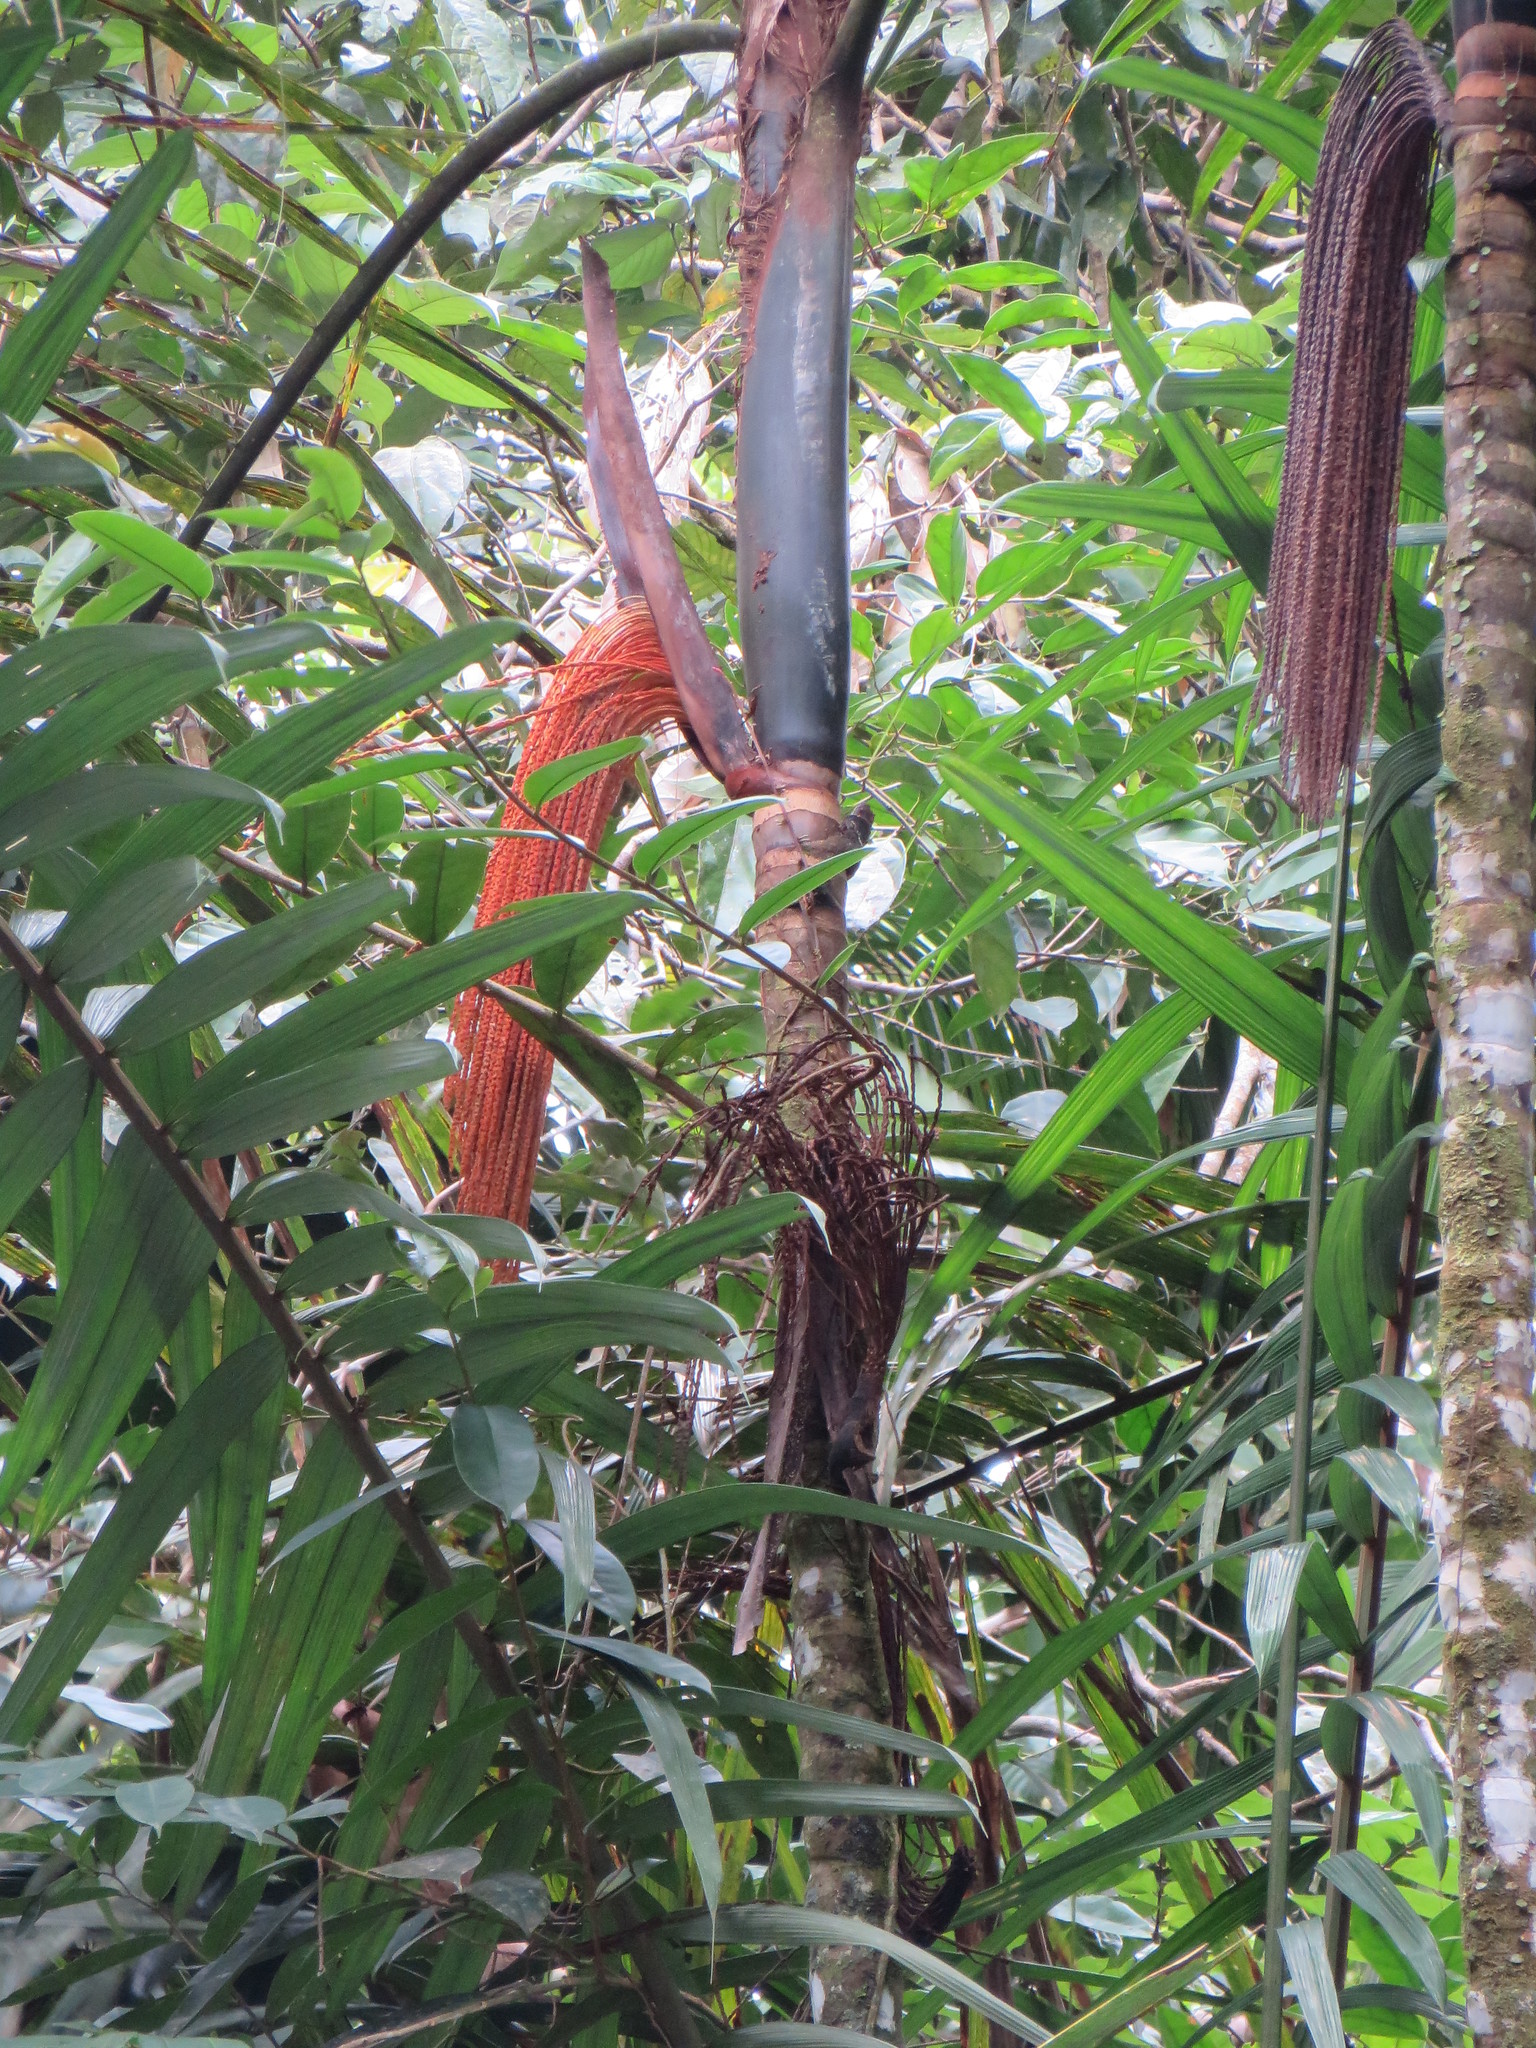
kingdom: Plantae
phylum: Tracheophyta
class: Liliopsida
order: Arecales
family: Arecaceae
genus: Oenocarpus
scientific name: Oenocarpus mapora
